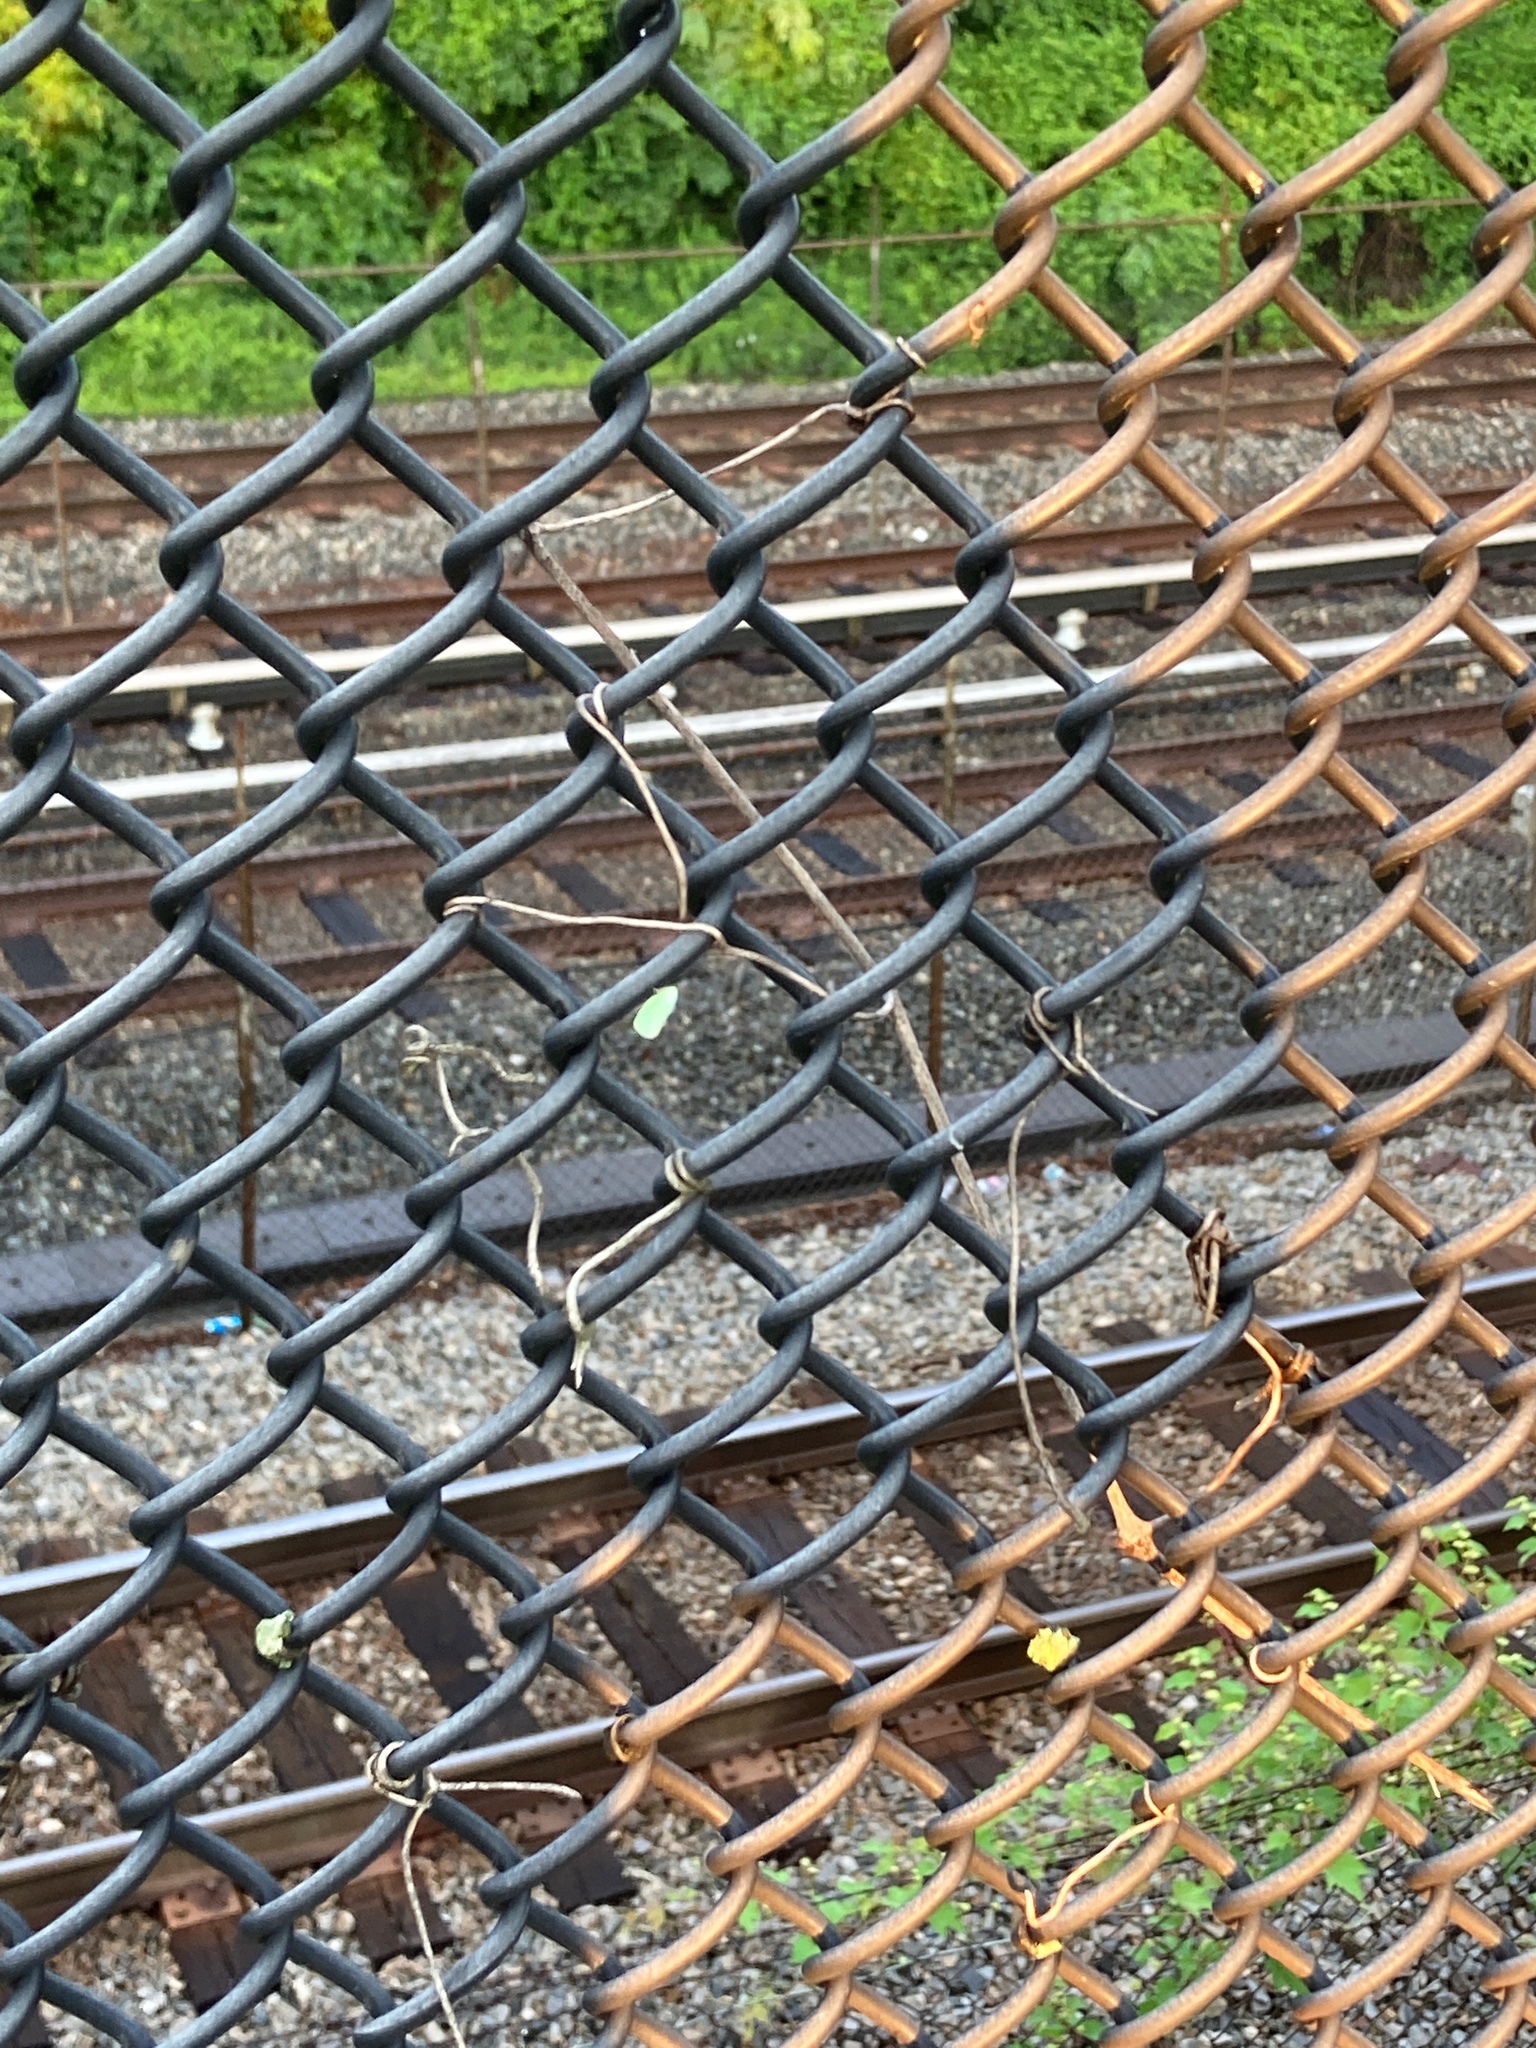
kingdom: Animalia
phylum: Arthropoda
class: Insecta
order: Hemiptera
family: Flatidae
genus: Ormenoides
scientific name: Ormenoides venusta
